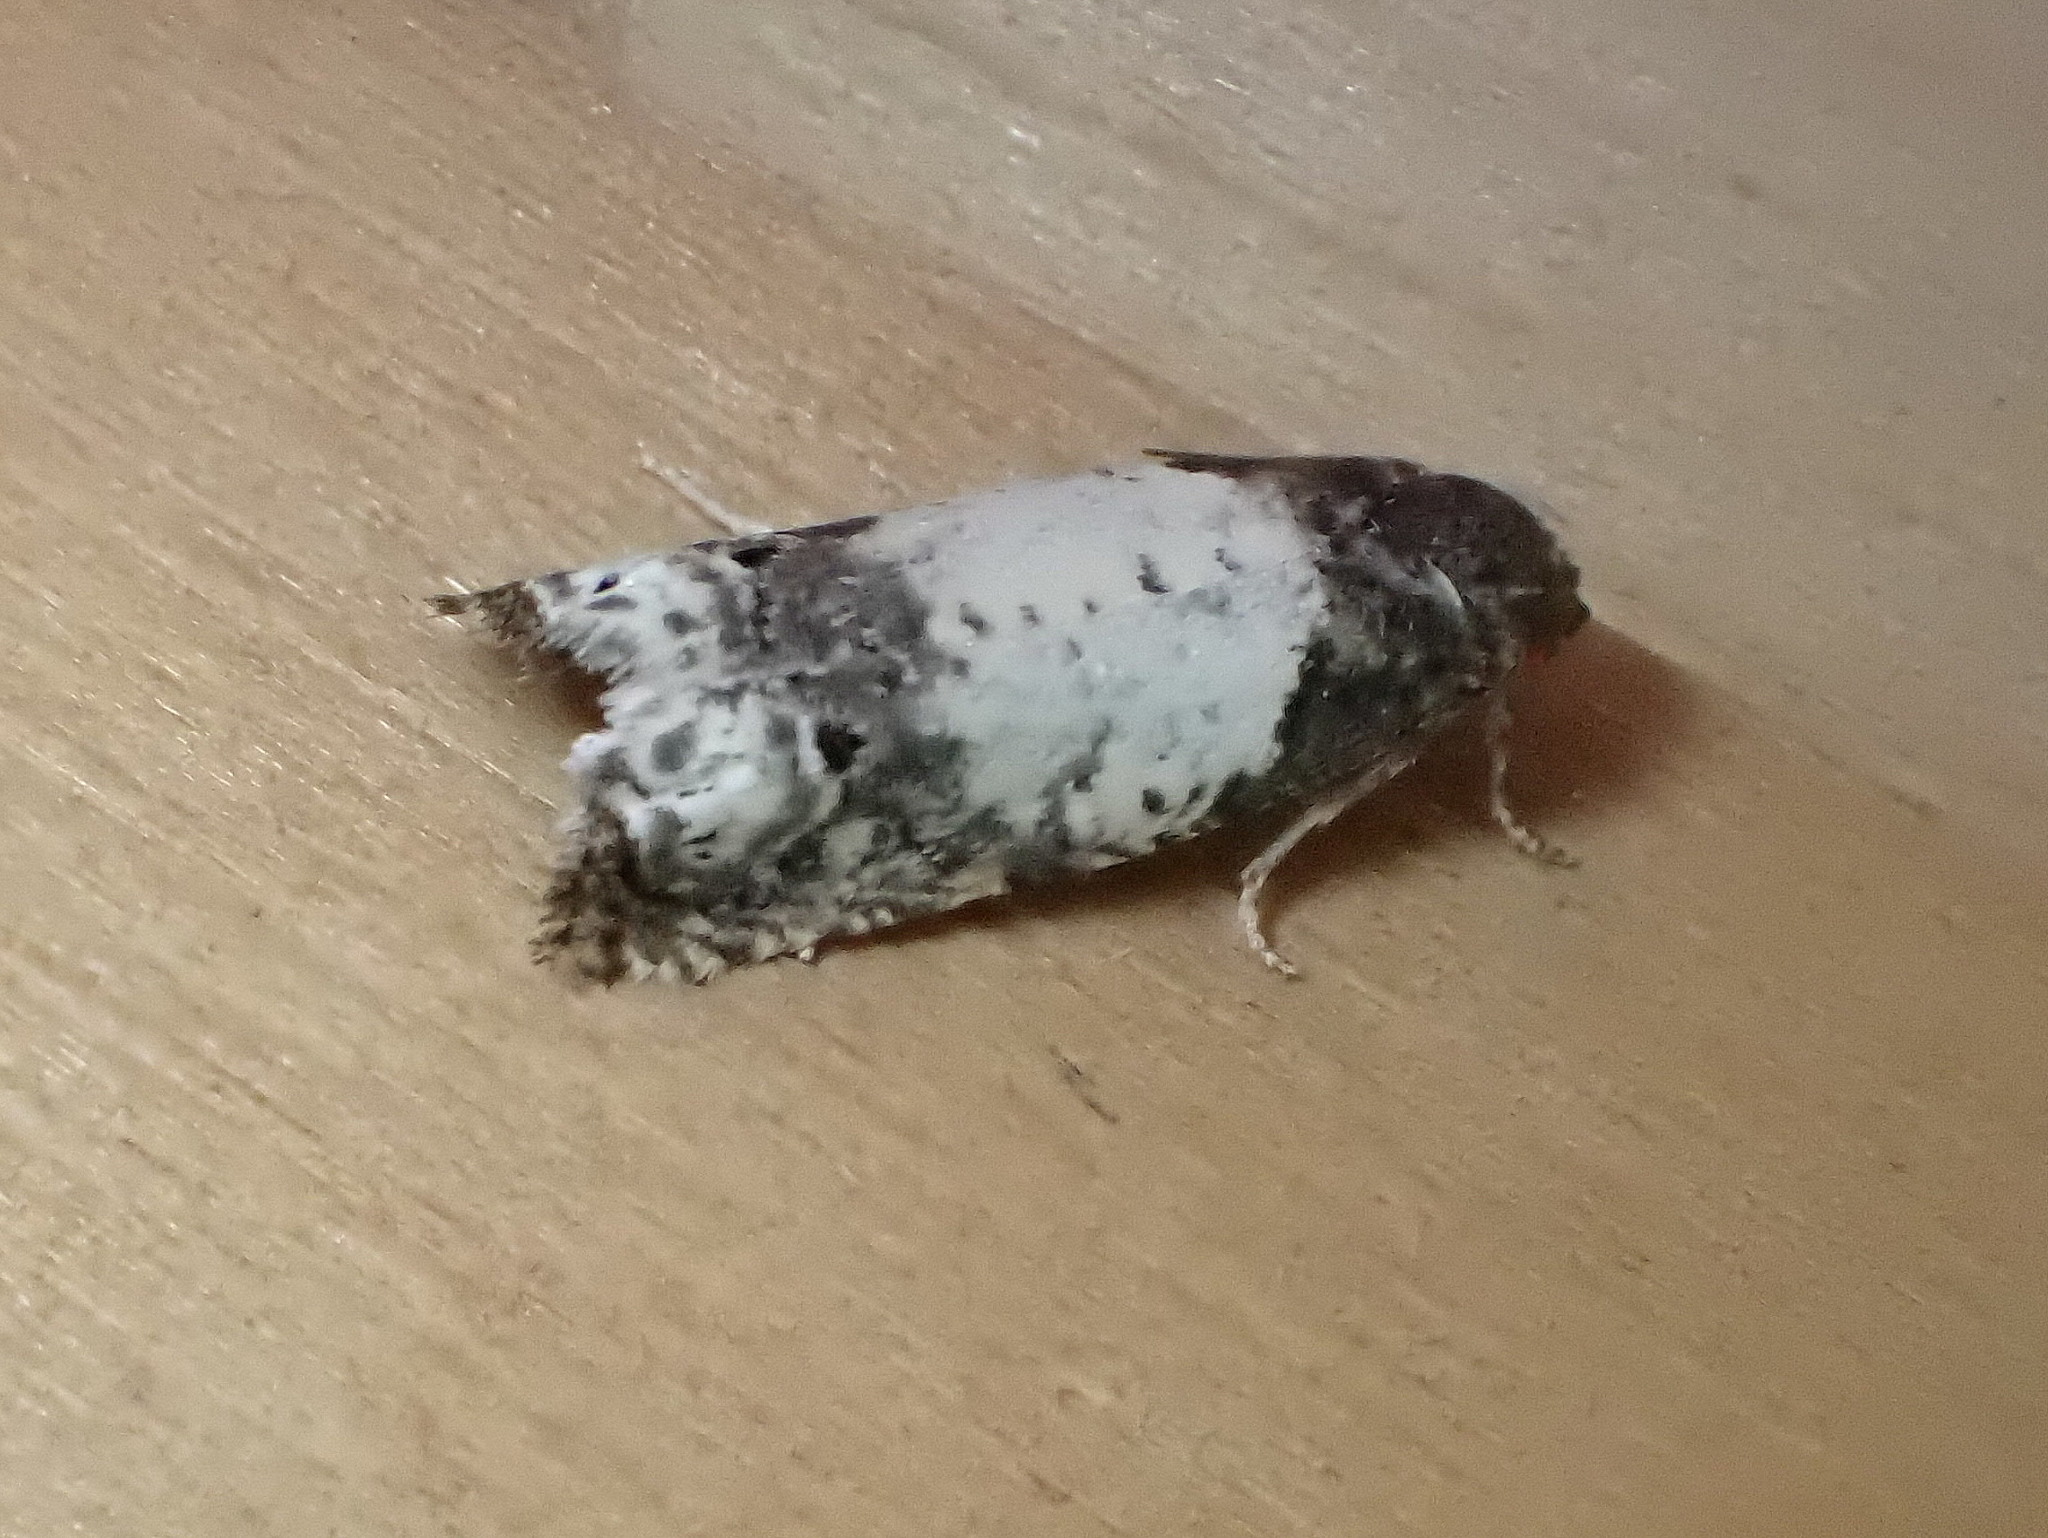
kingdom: Animalia
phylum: Arthropoda
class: Insecta
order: Lepidoptera
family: Tortricidae
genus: Epiblema
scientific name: Epiblema scudderiana
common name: Goldenrod gall moth
